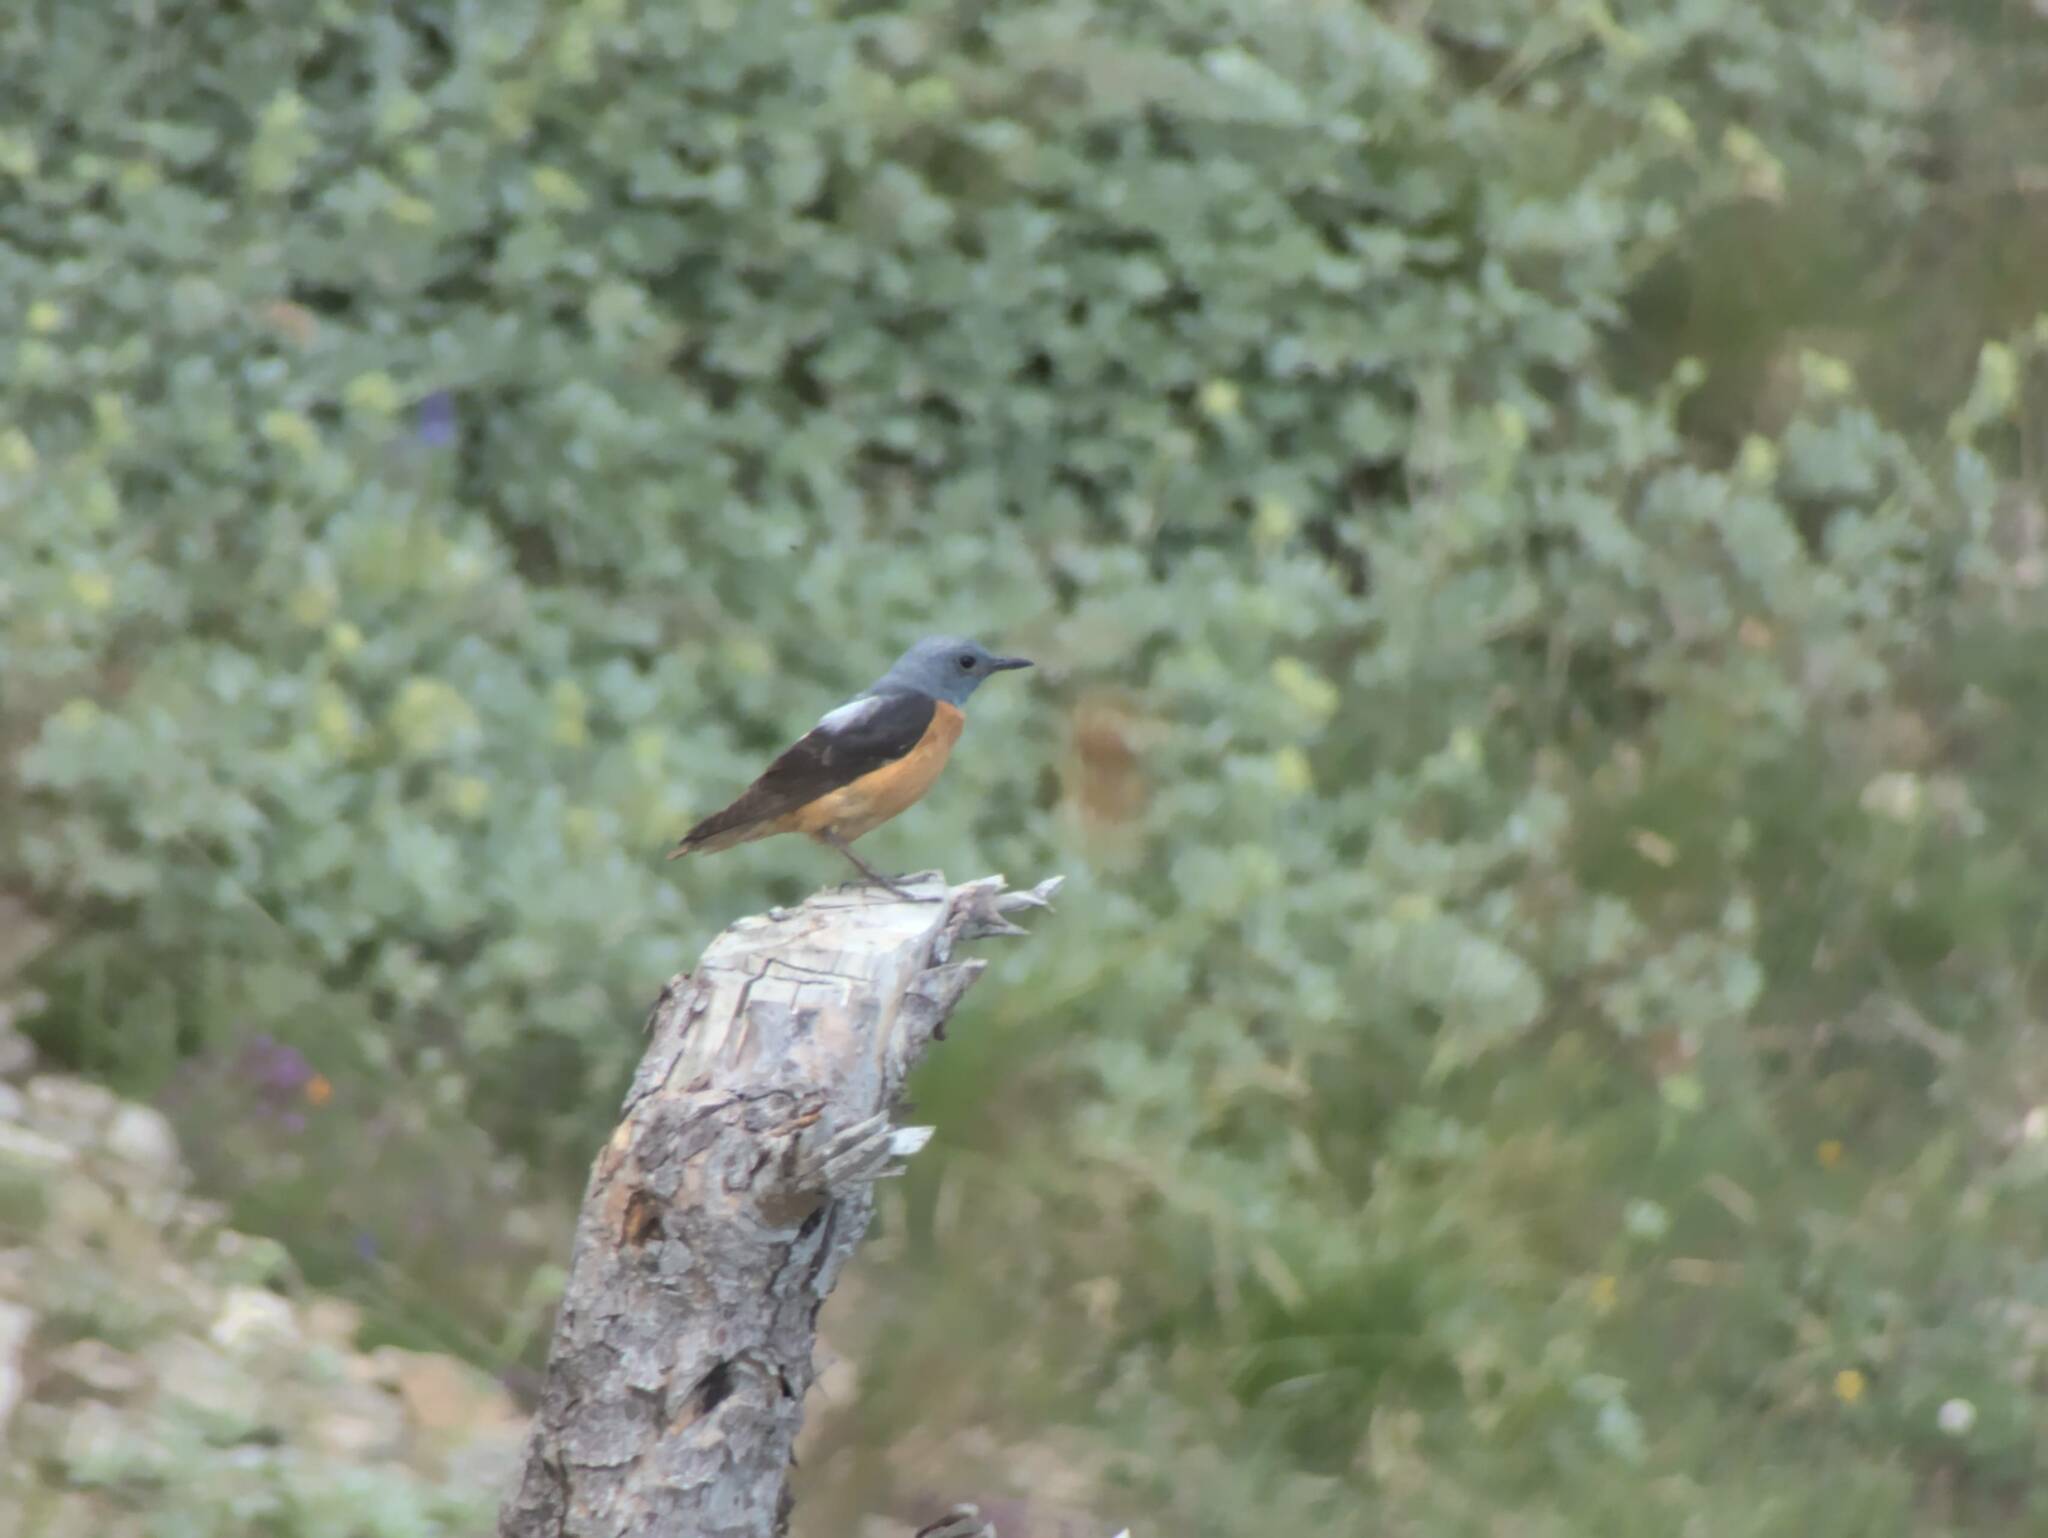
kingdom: Animalia
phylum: Chordata
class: Aves
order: Passeriformes
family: Muscicapidae
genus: Monticola
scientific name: Monticola saxatilis
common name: Rufous-tailed rock thrush
